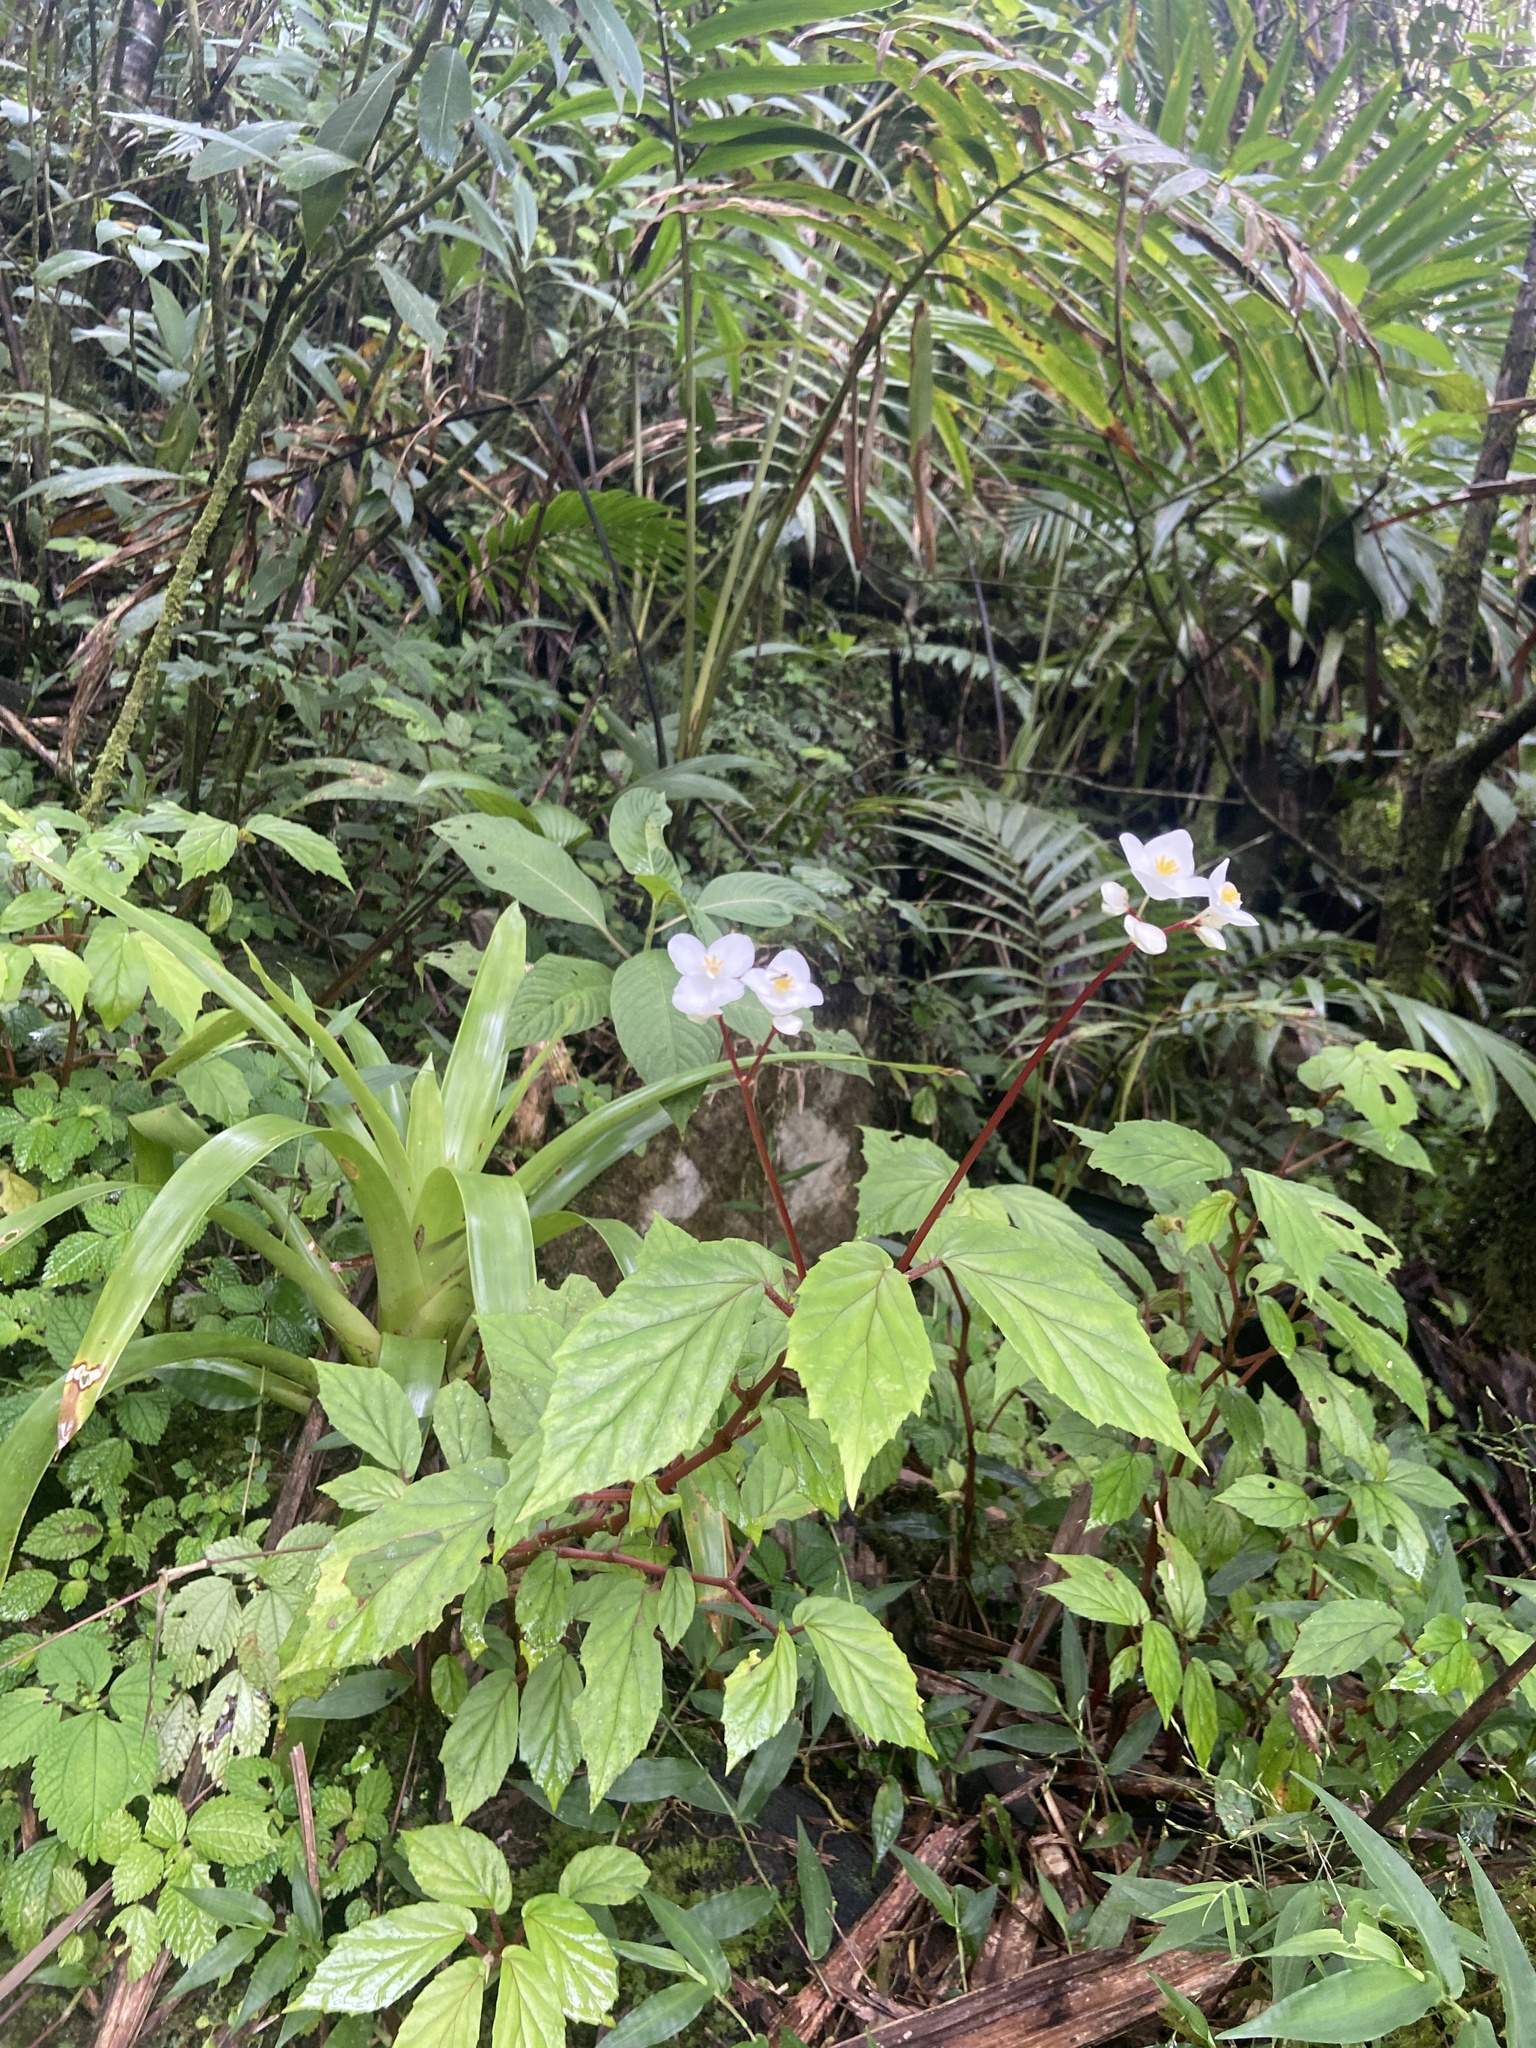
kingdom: Plantae
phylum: Tracheophyta
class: Magnoliopsida
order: Cucurbitales
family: Begoniaceae
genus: Begonia
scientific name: Begonia decandra
